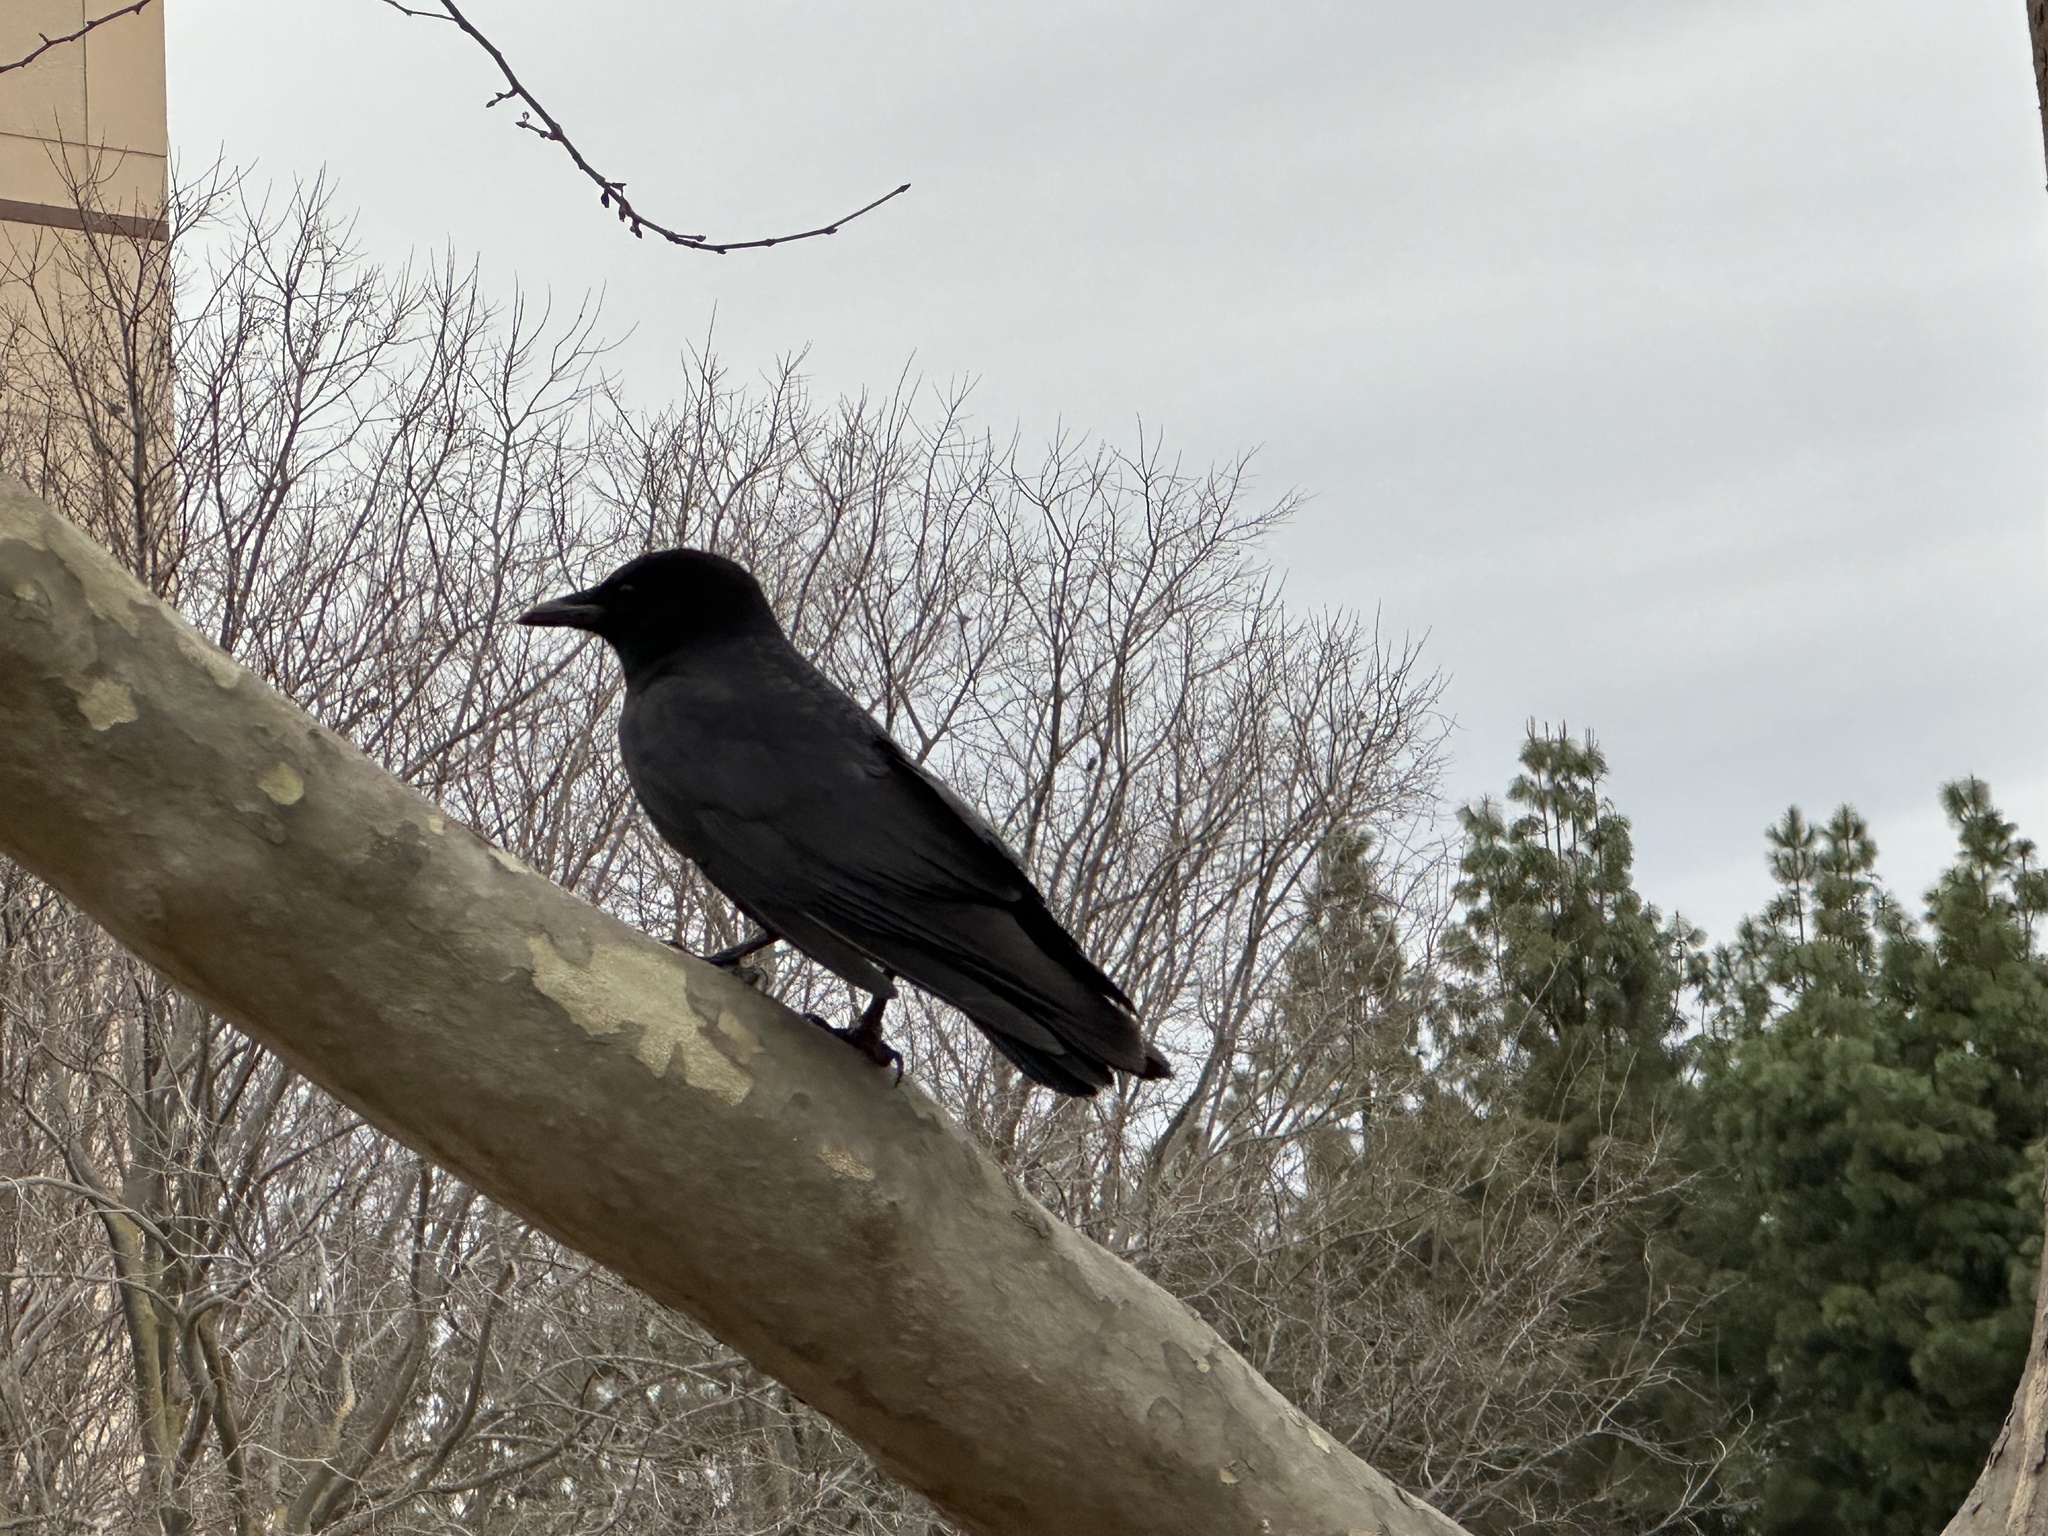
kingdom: Animalia
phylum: Chordata
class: Aves
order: Passeriformes
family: Corvidae
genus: Corvus
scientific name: Corvus brachyrhynchos
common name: American crow
